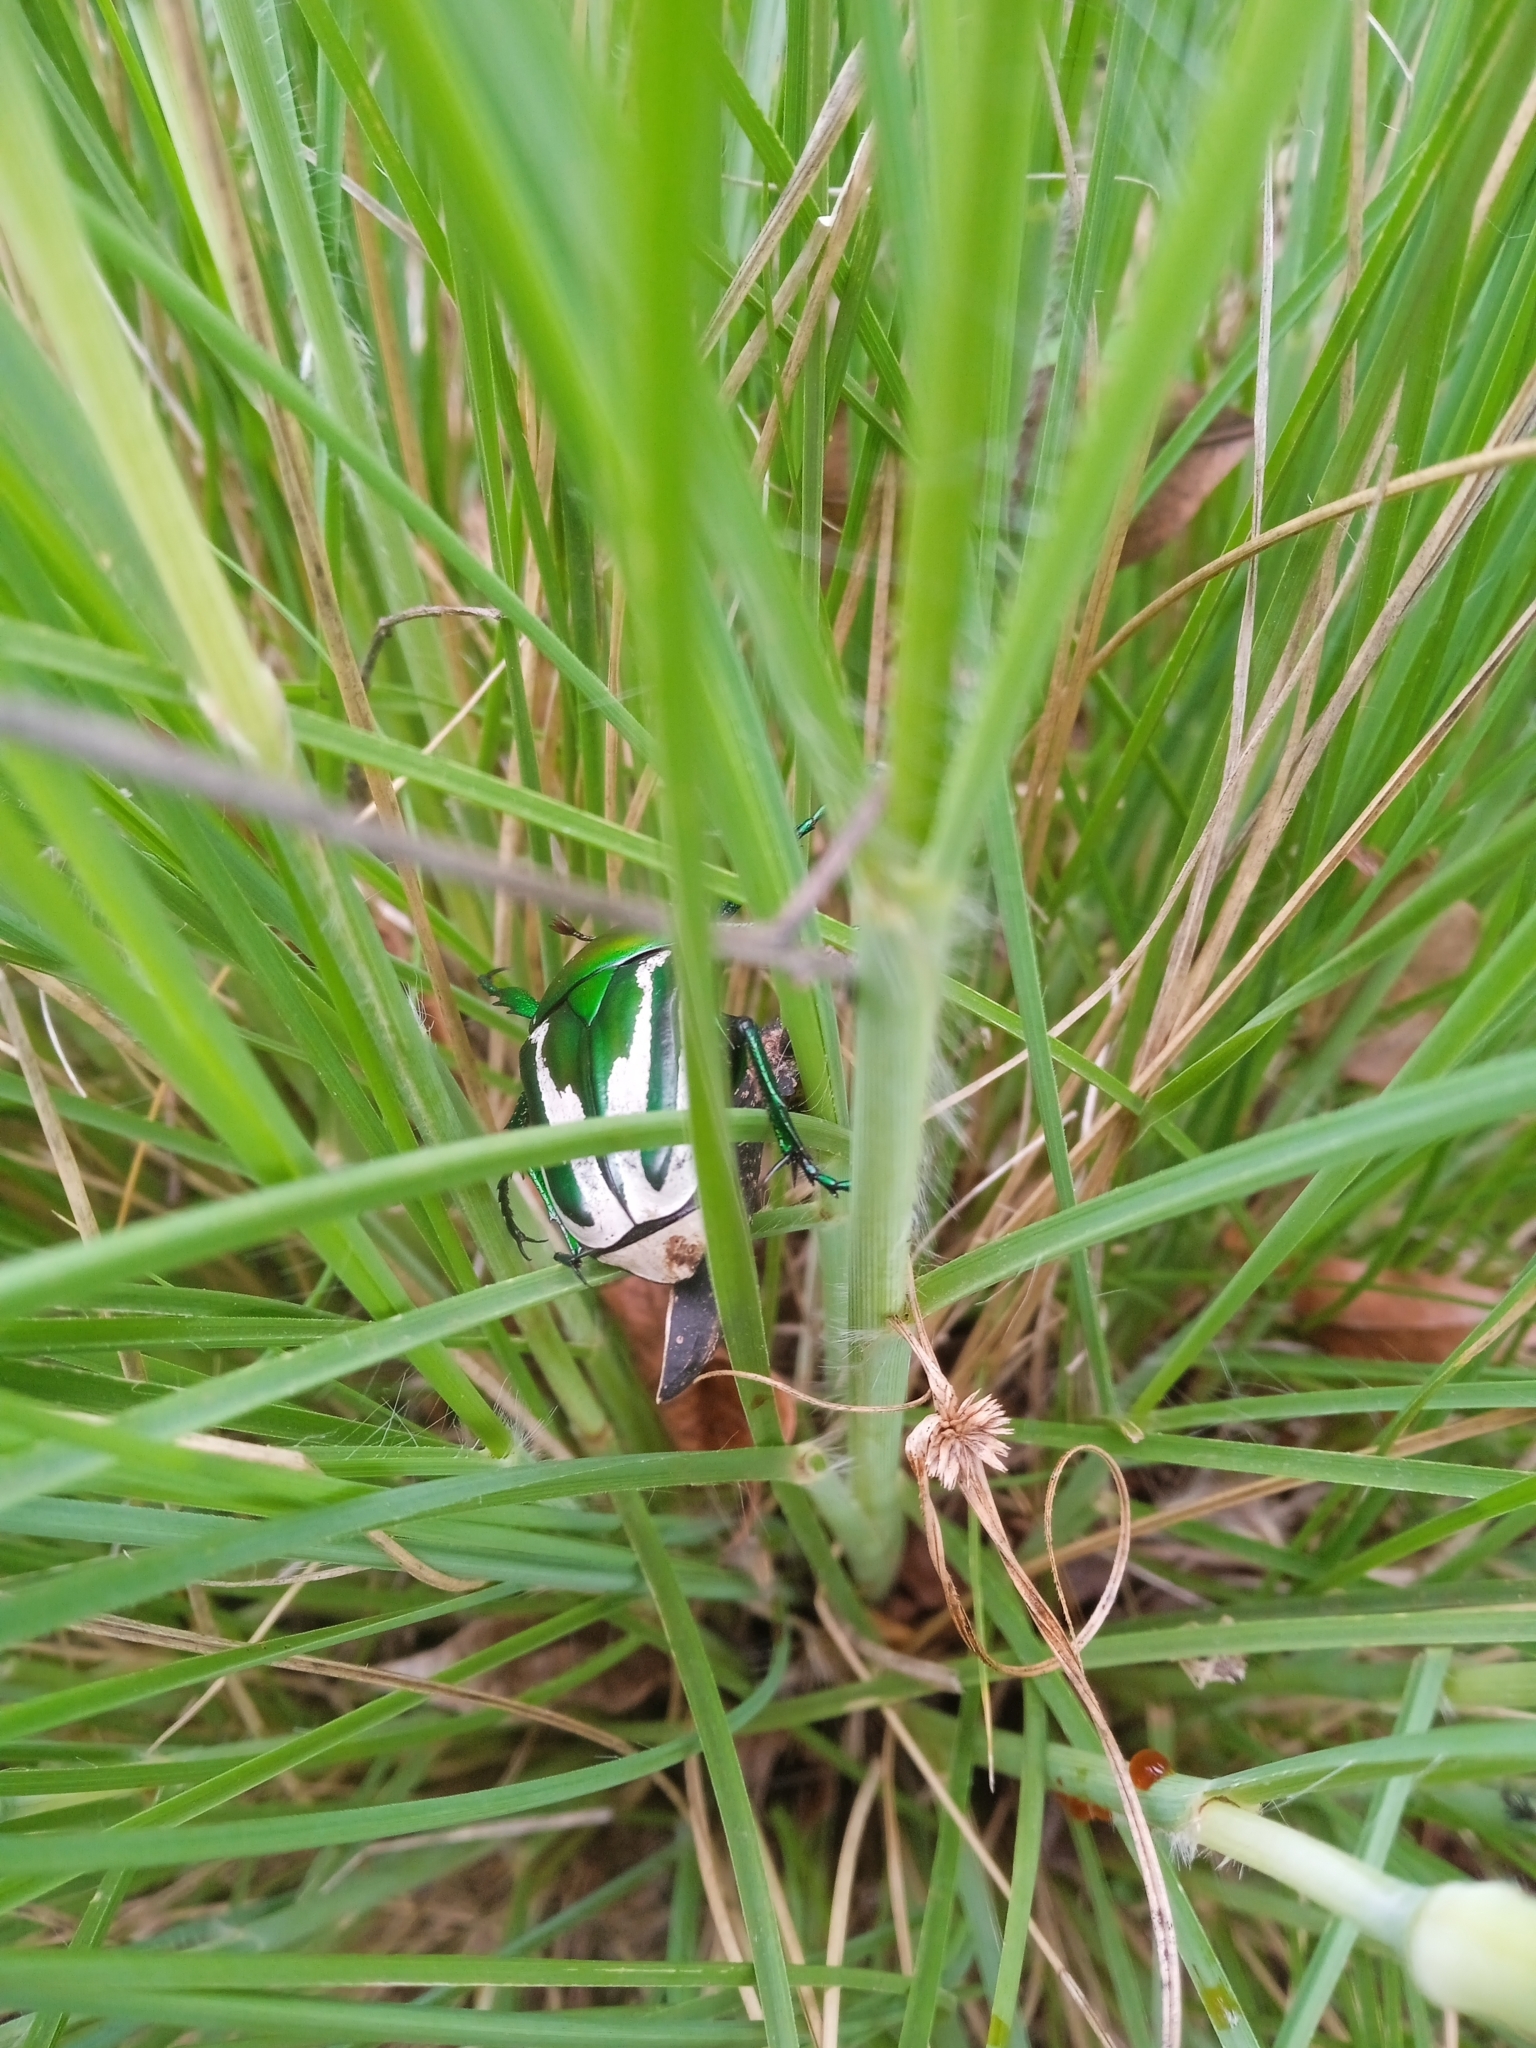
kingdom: Animalia
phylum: Arthropoda
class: Insecta
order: Coleoptera
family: Scarabaeidae
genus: Dicronorhina
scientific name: Dicronorhina derbyana
